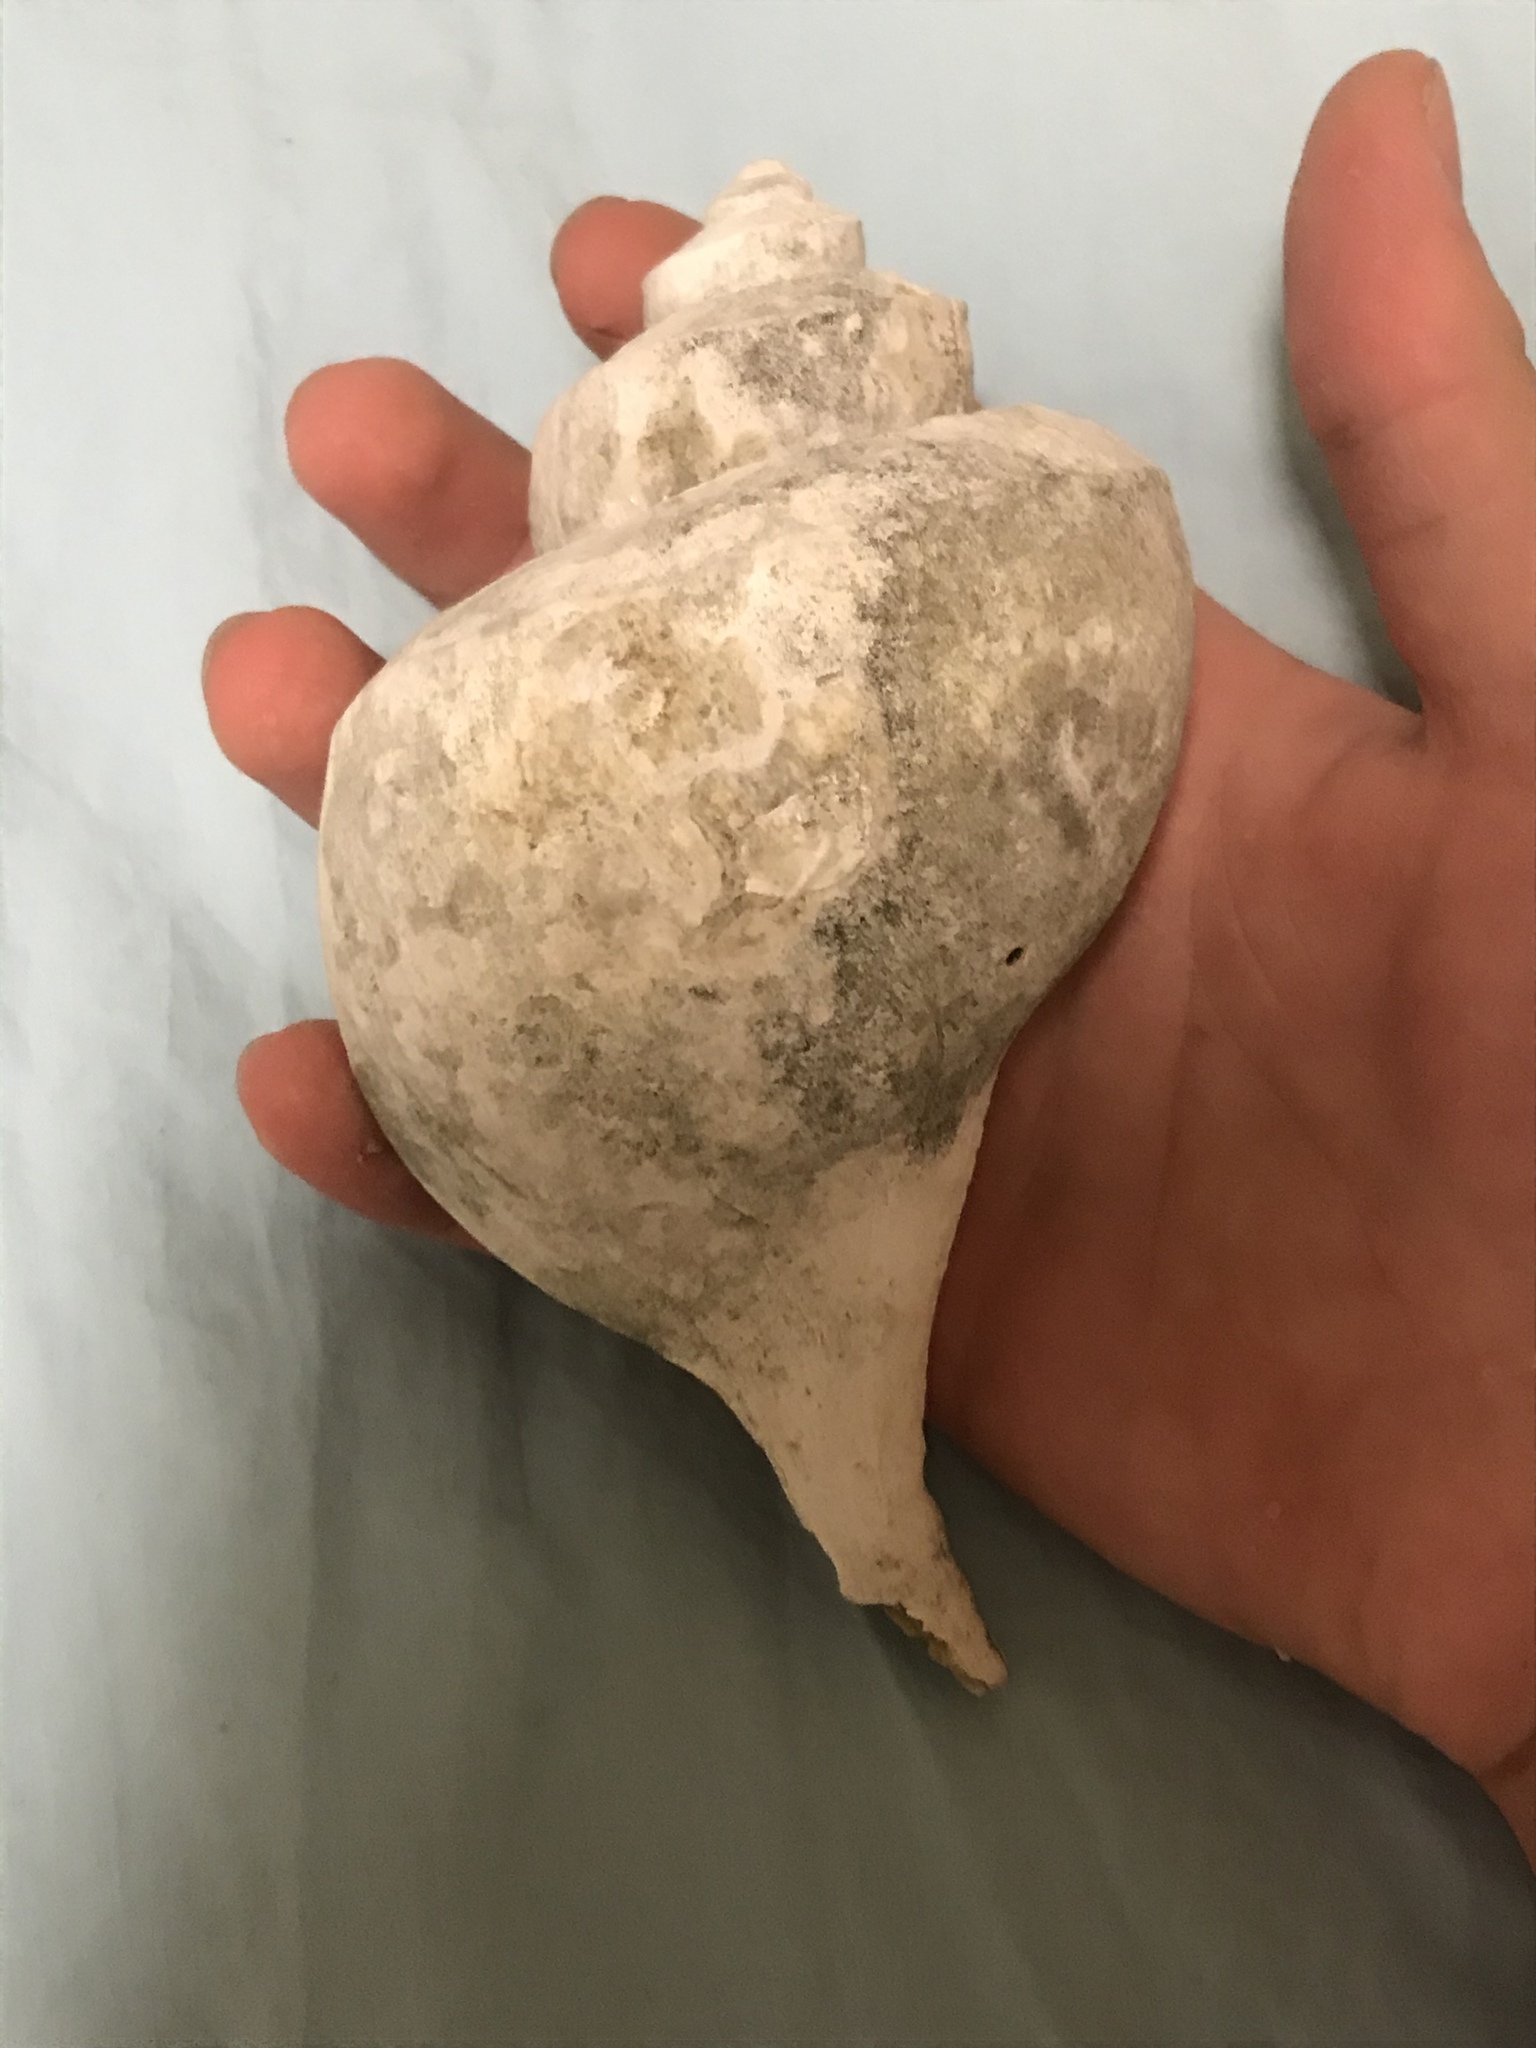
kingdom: Animalia
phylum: Mollusca
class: Gastropoda
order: Neogastropoda
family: Busyconidae
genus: Busycotypus
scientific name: Busycotypus canaliculatus
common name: Channeled whelk
